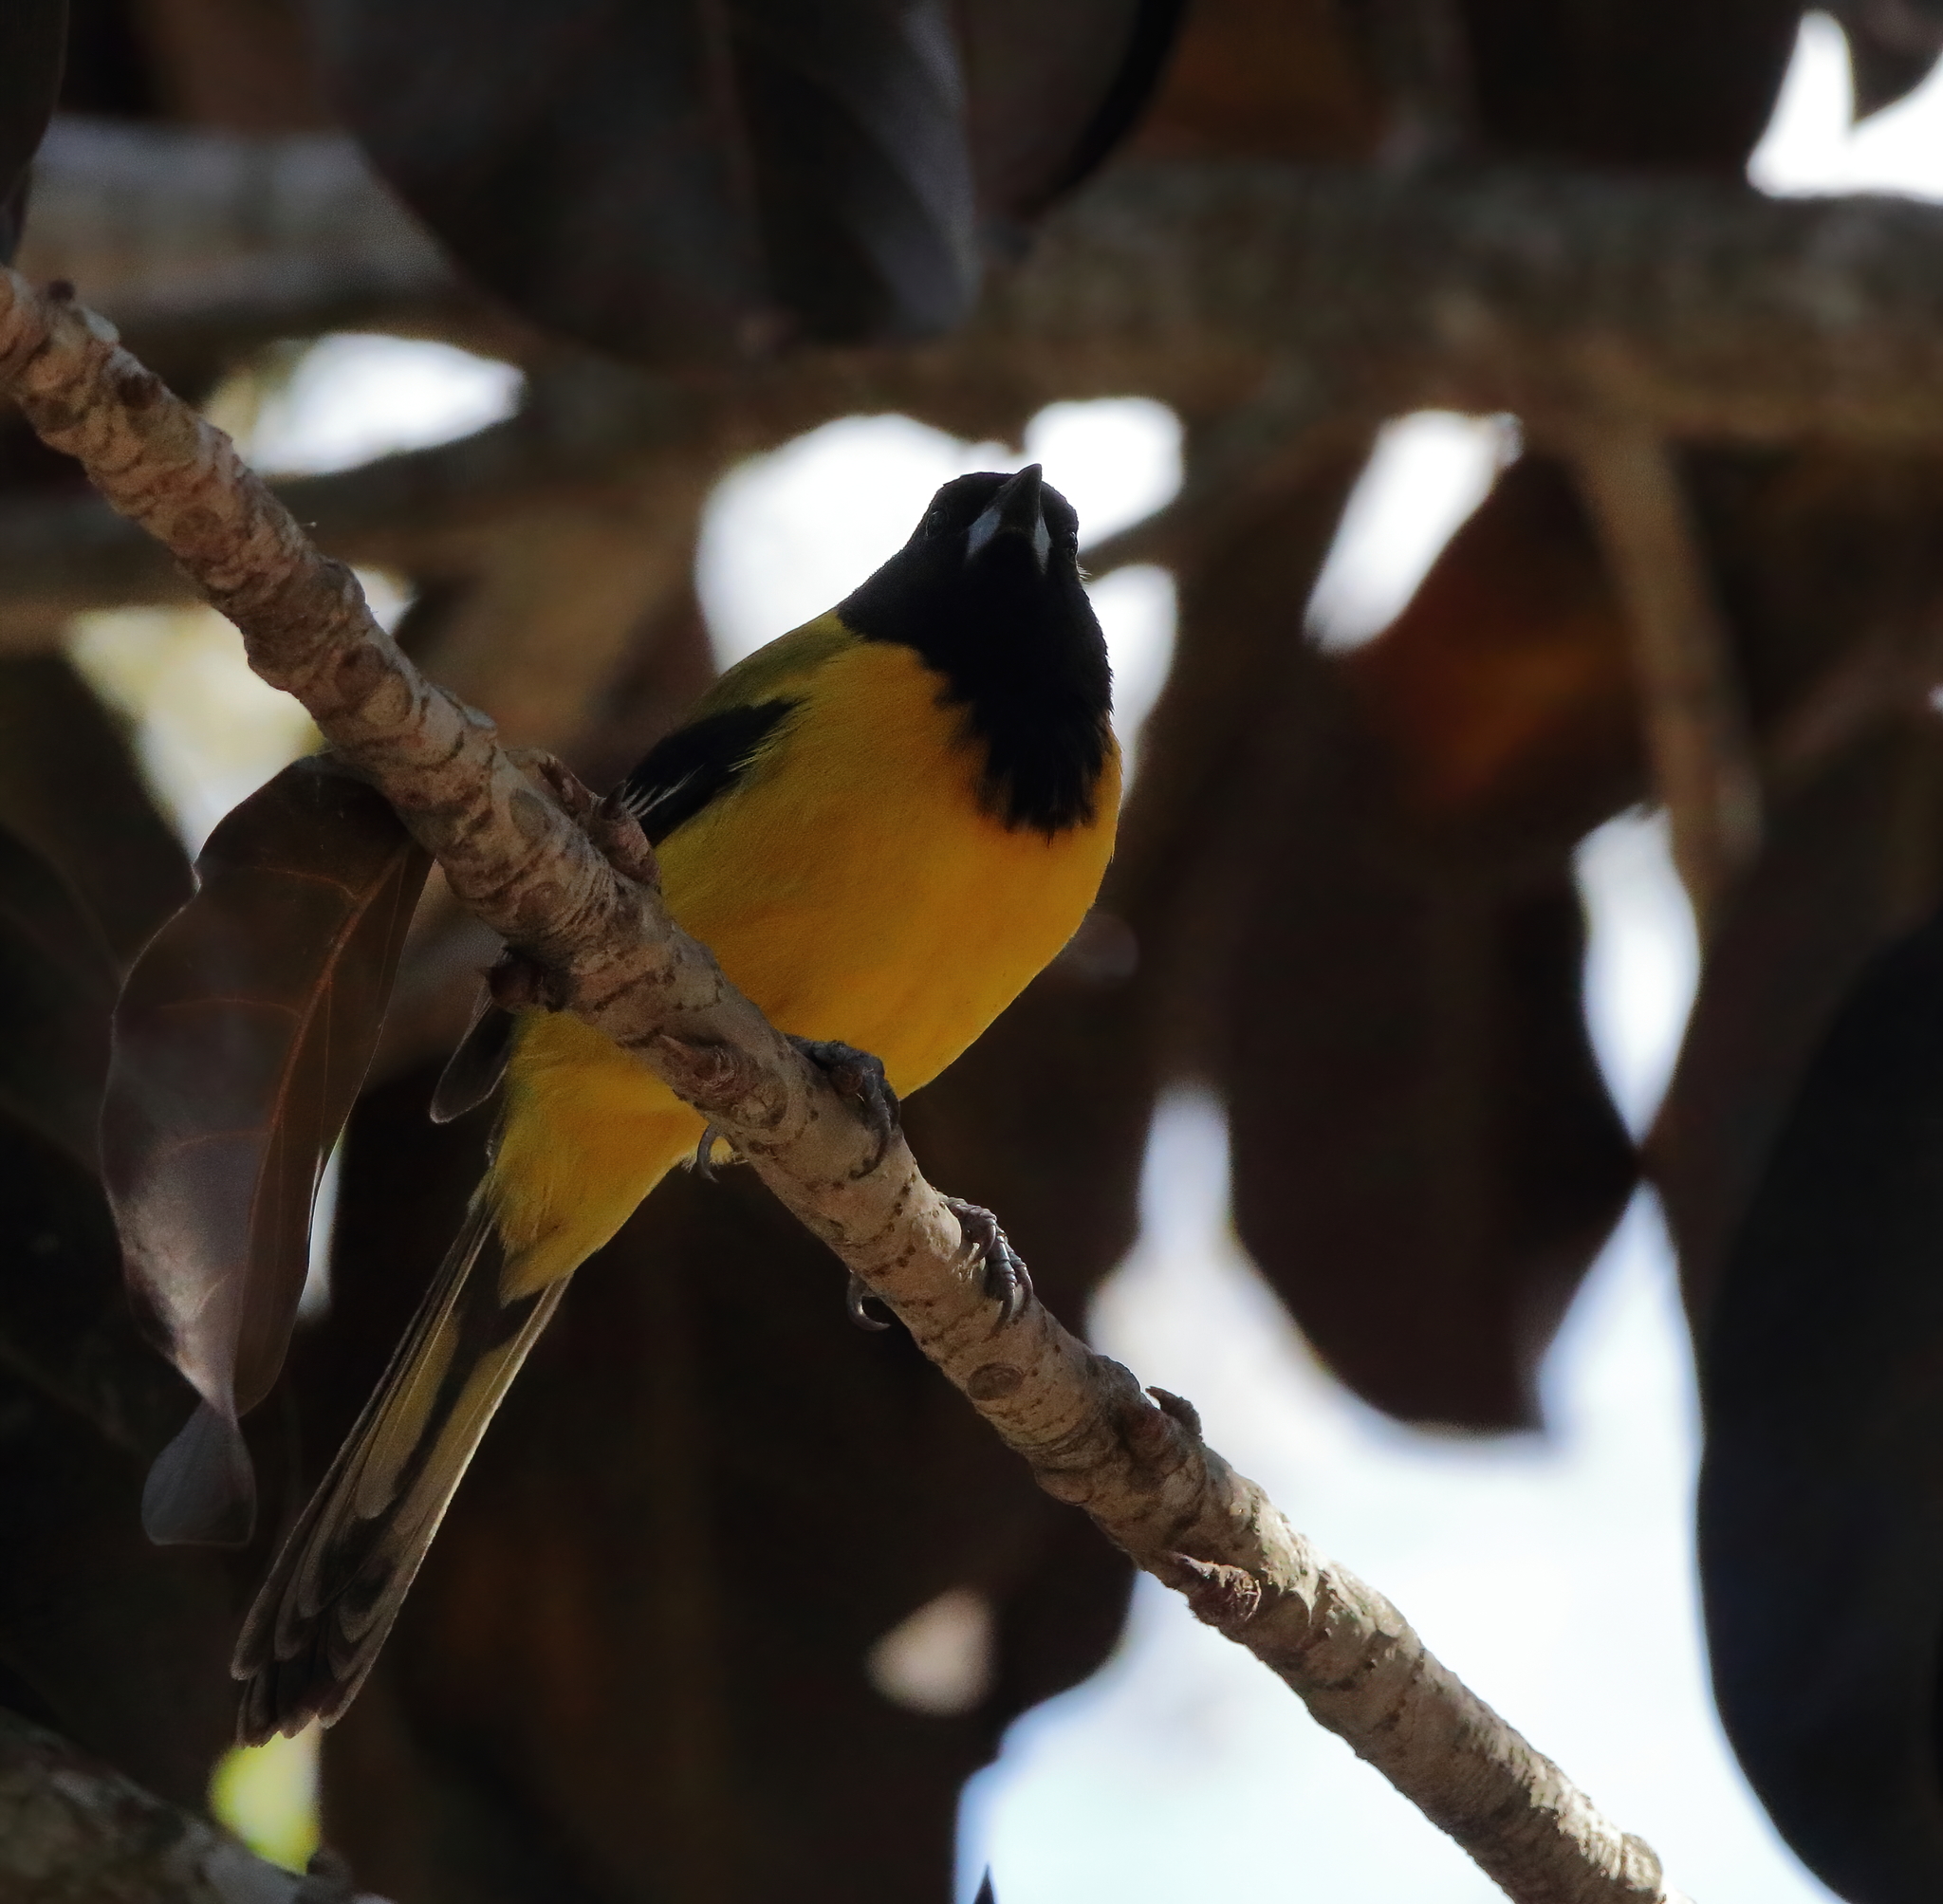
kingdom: Animalia
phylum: Chordata
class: Aves
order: Passeriformes
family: Icteridae
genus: Icterus
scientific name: Icterus graduacauda
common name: Audubon's oriole
